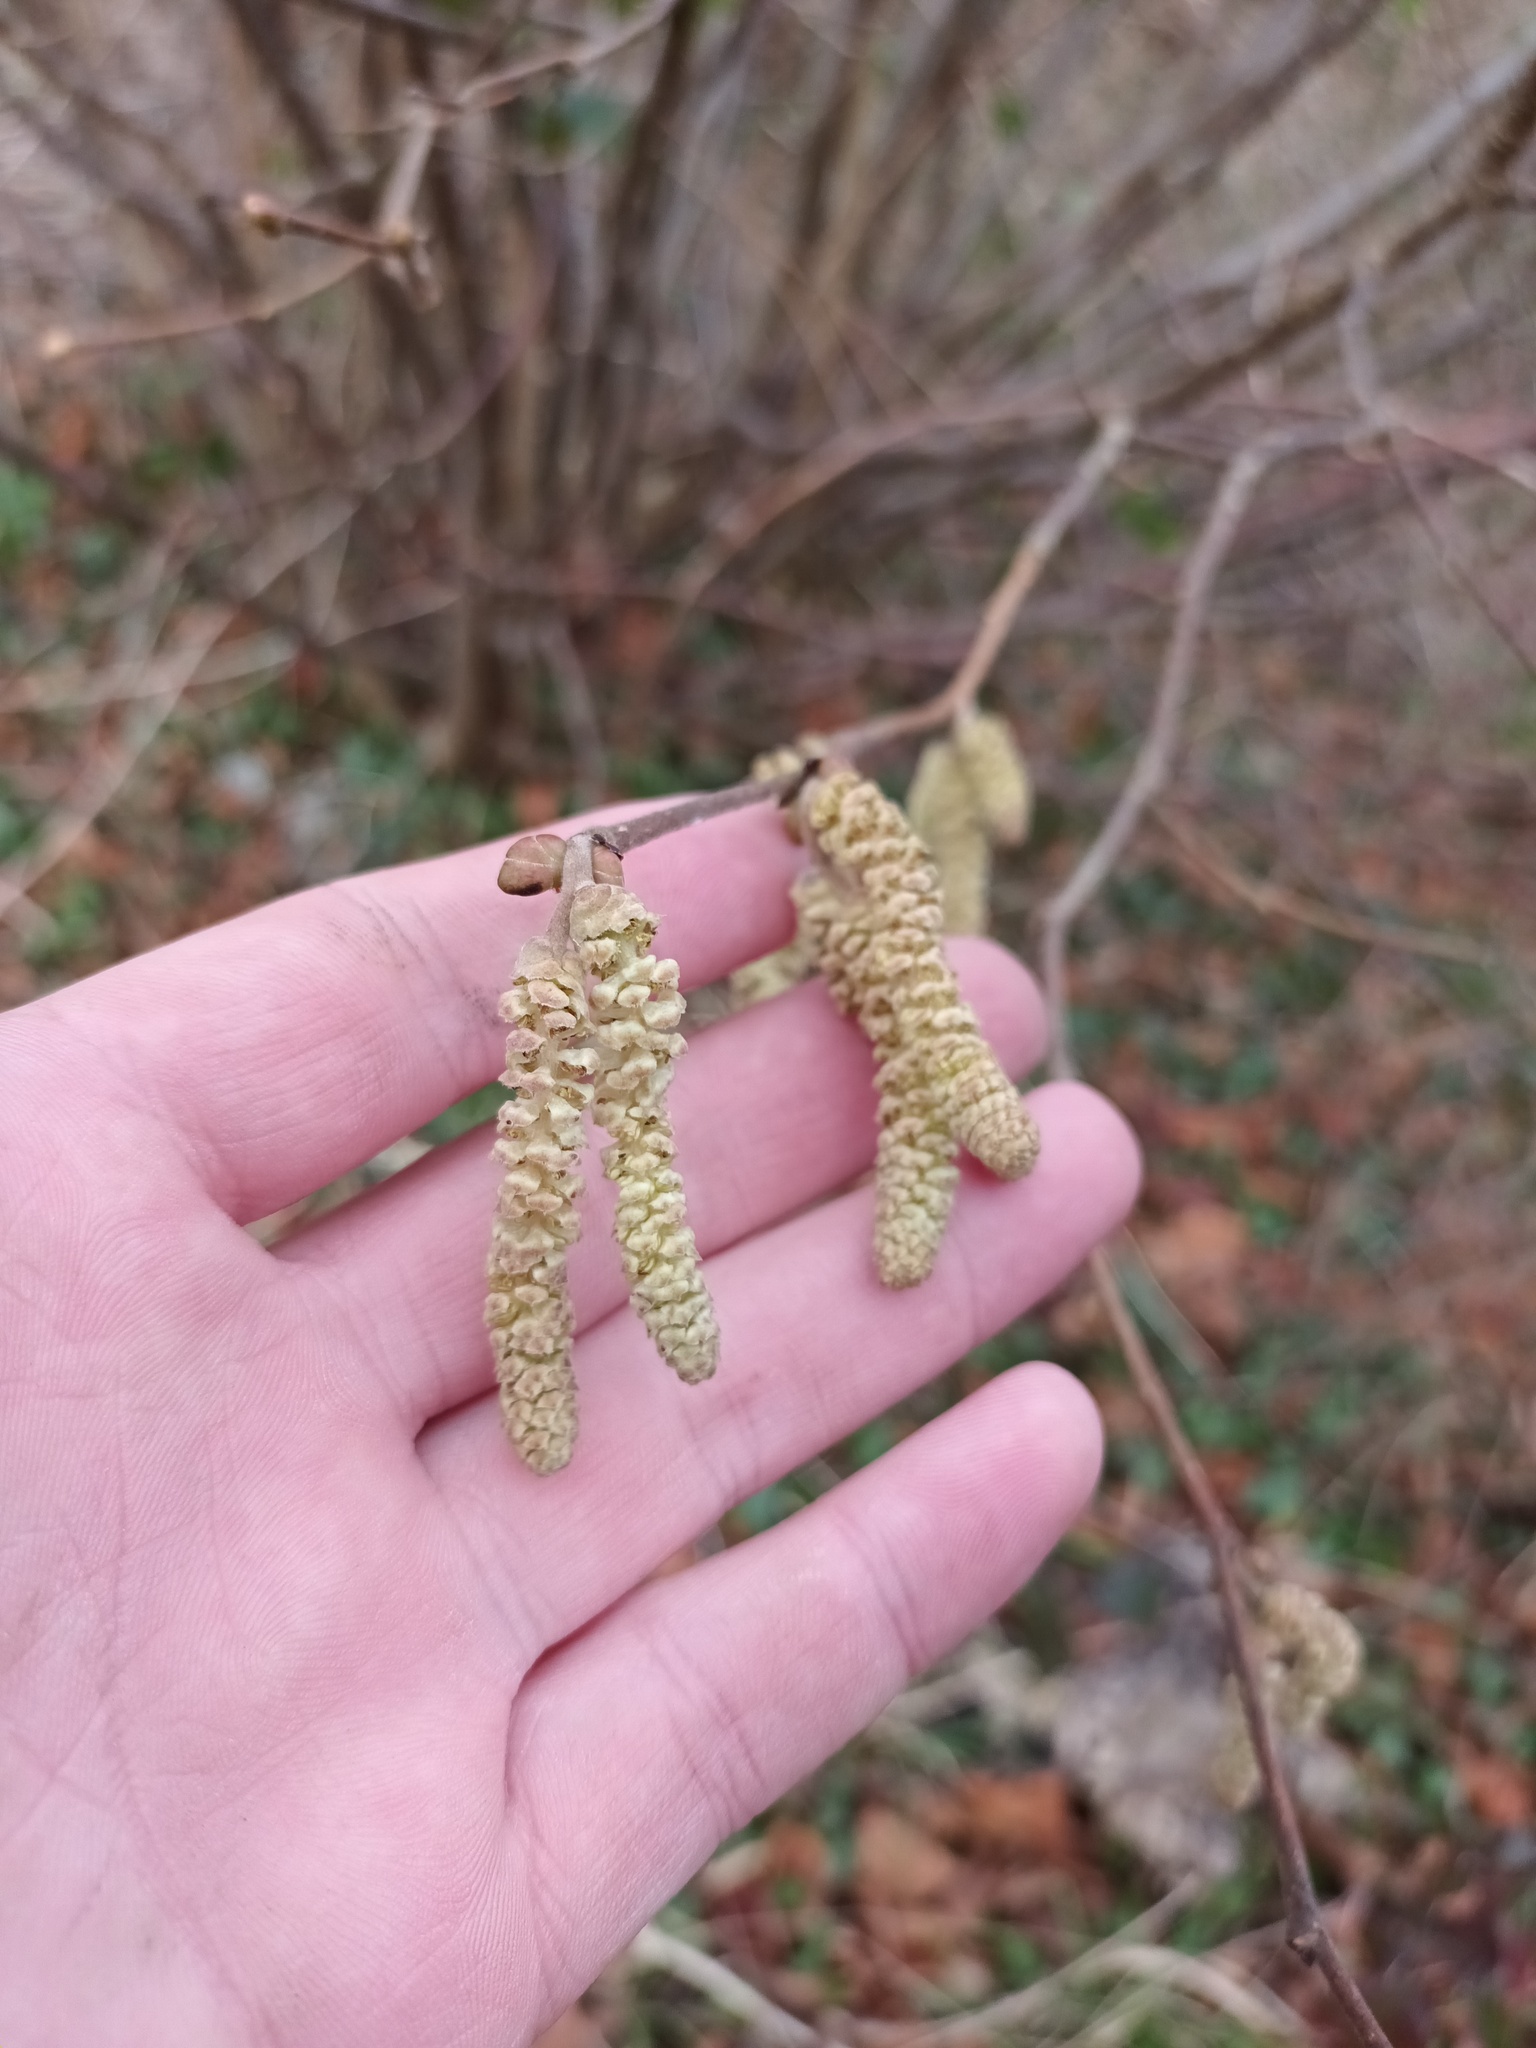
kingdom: Plantae
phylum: Tracheophyta
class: Magnoliopsida
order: Fagales
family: Betulaceae
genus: Corylus
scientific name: Corylus avellana
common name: European hazel
